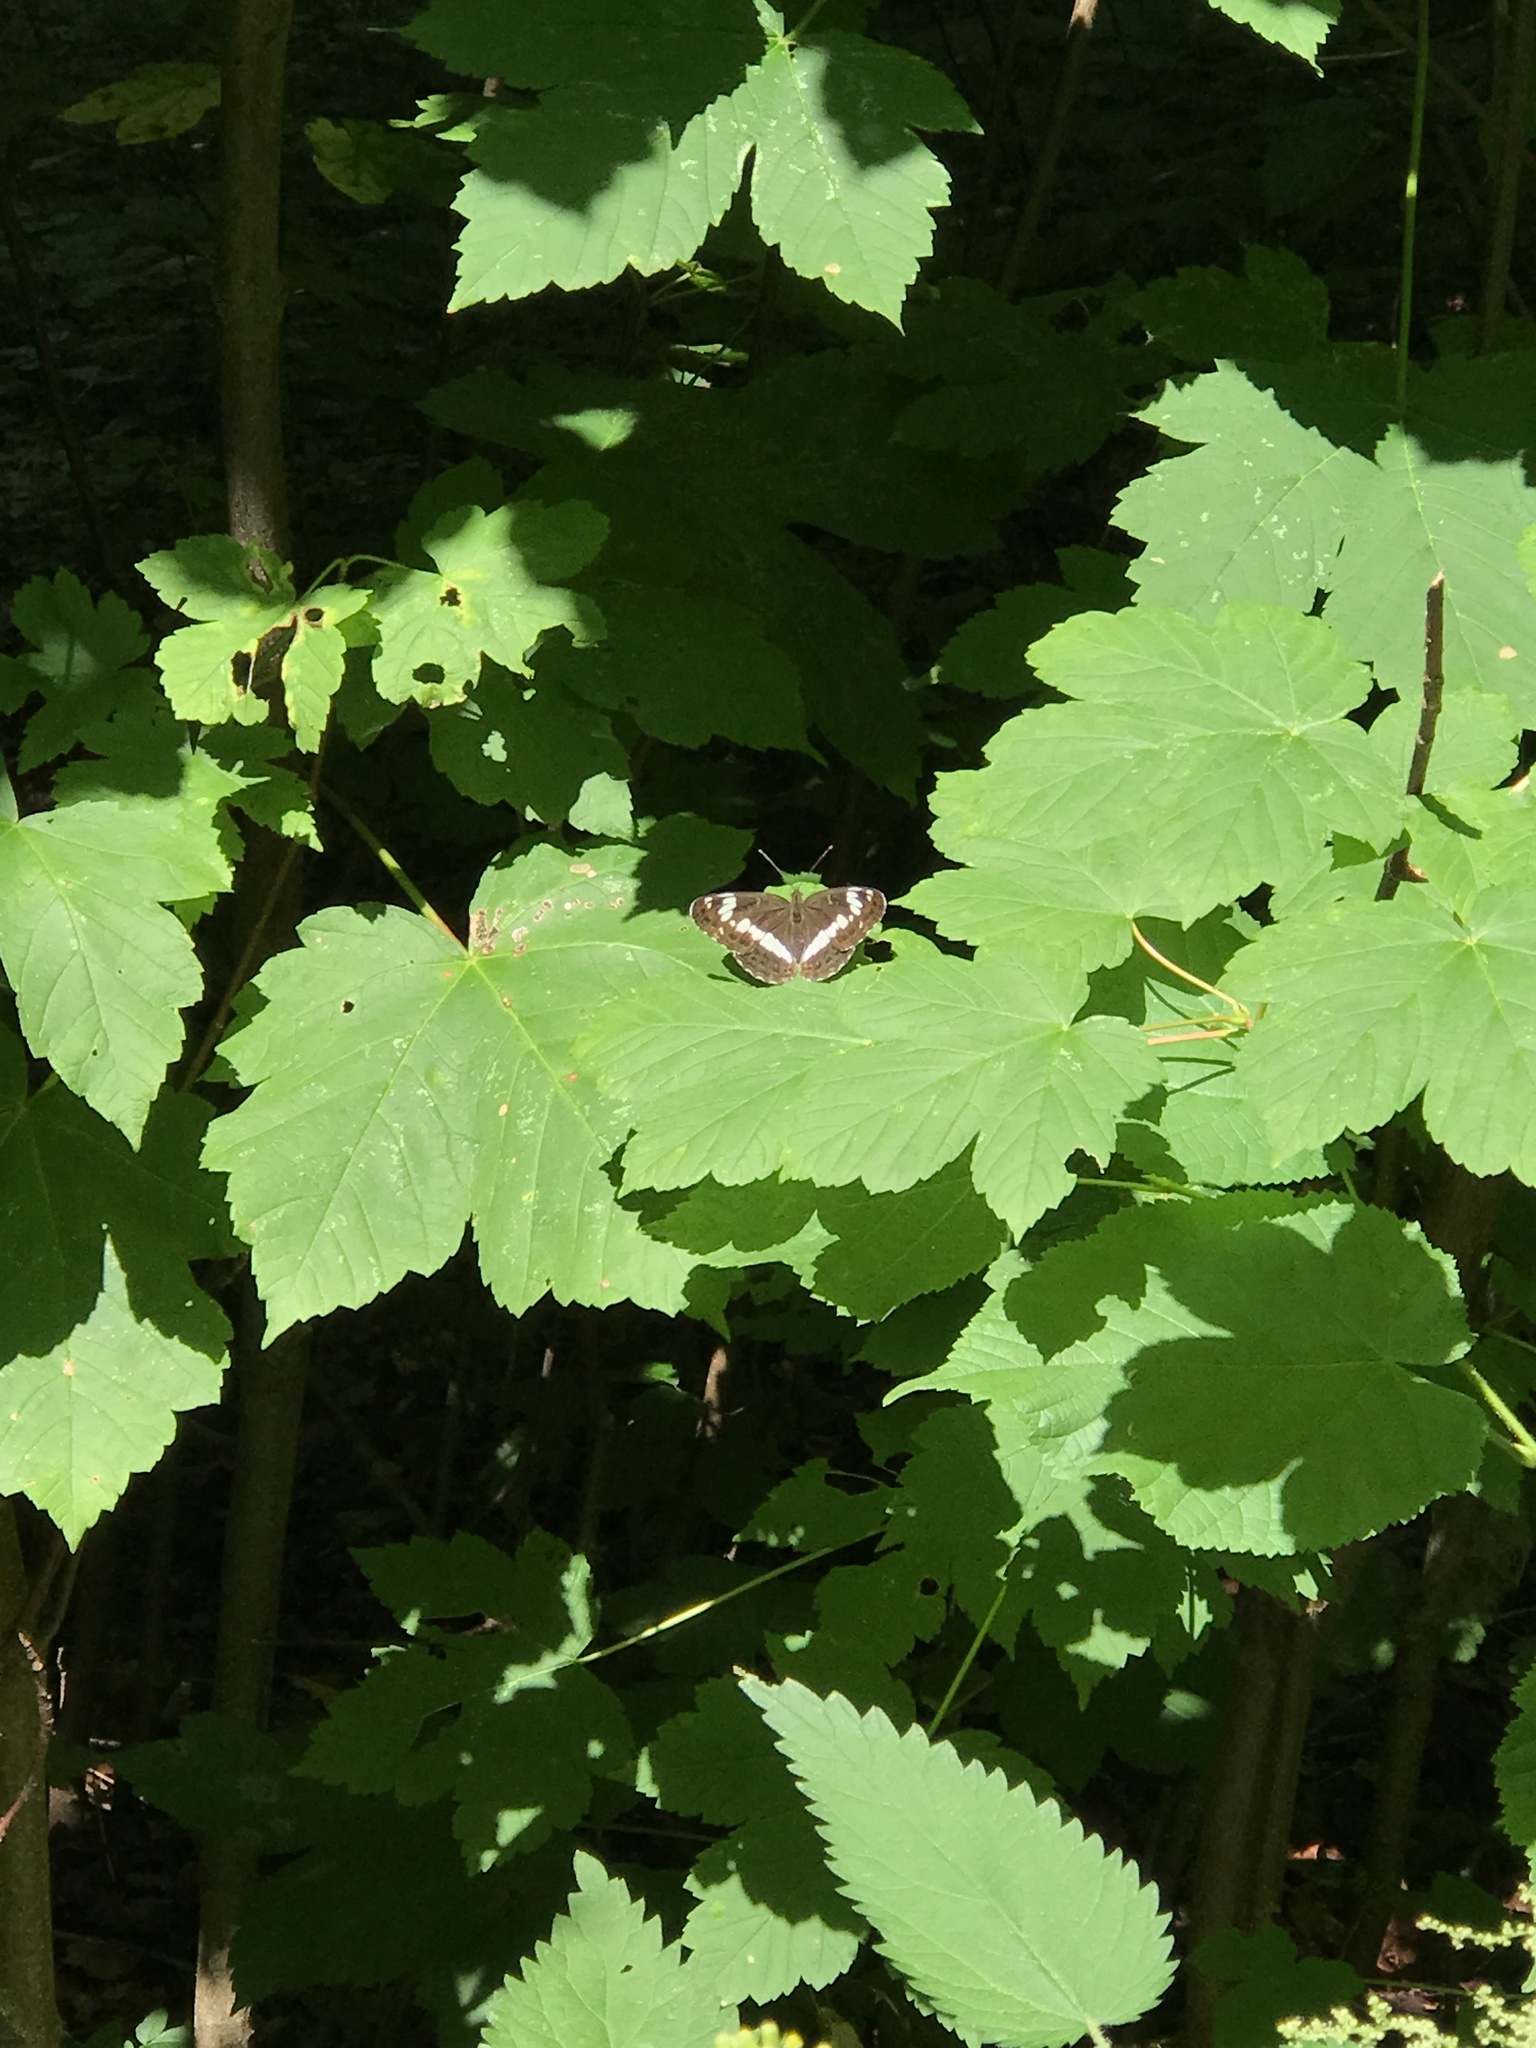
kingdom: Animalia
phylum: Arthropoda
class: Insecta
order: Lepidoptera
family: Nymphalidae
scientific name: Nymphalidae
